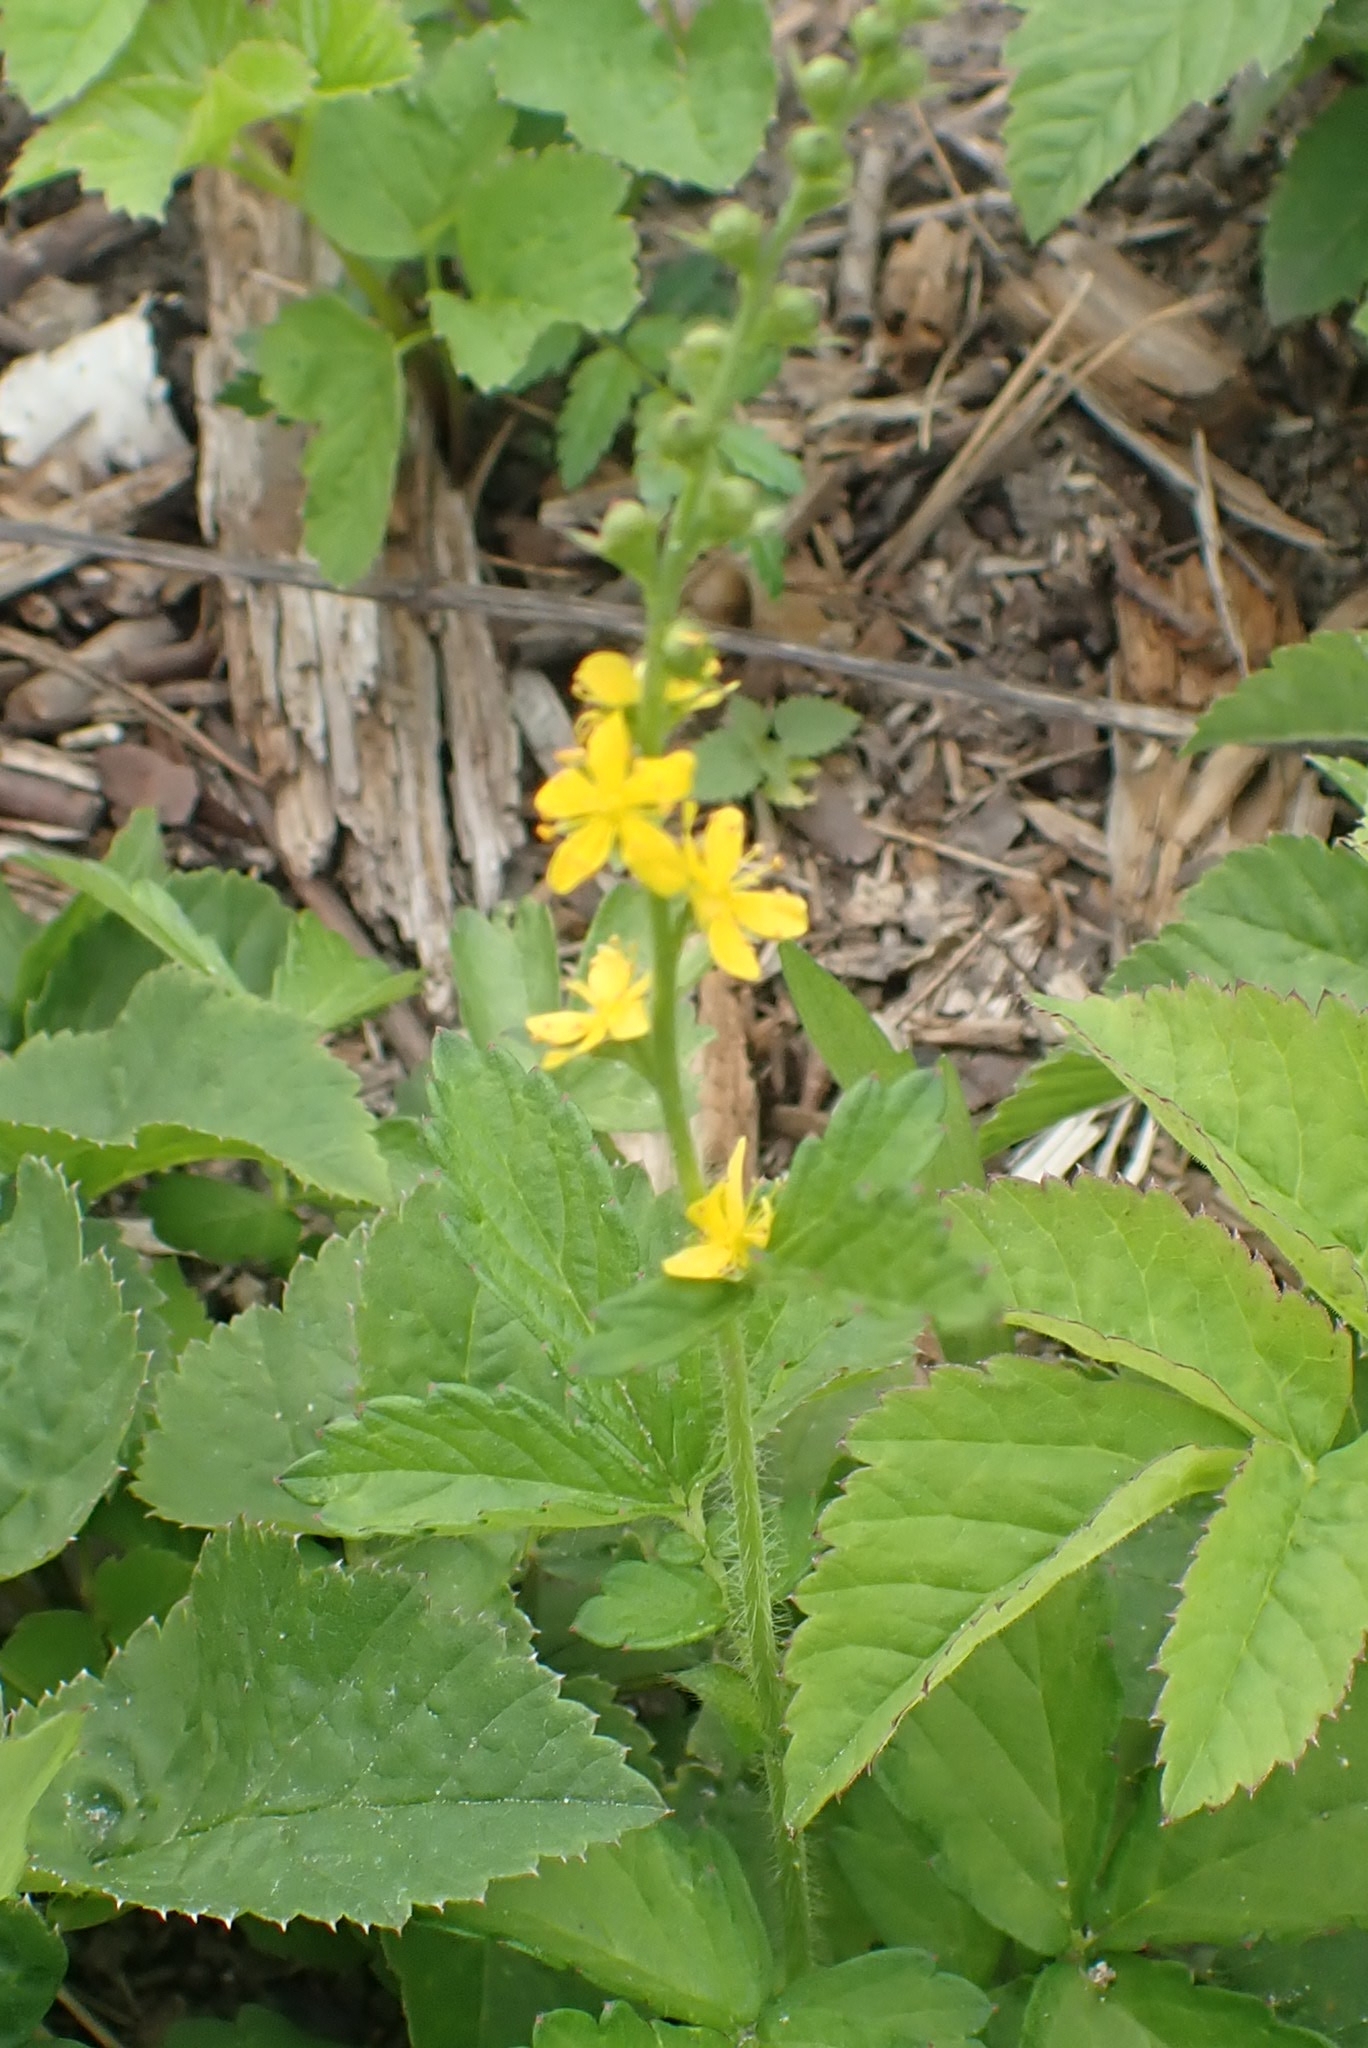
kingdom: Plantae
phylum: Tracheophyta
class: Magnoliopsida
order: Rosales
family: Rosaceae
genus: Agrimonia
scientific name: Agrimonia pilosa
